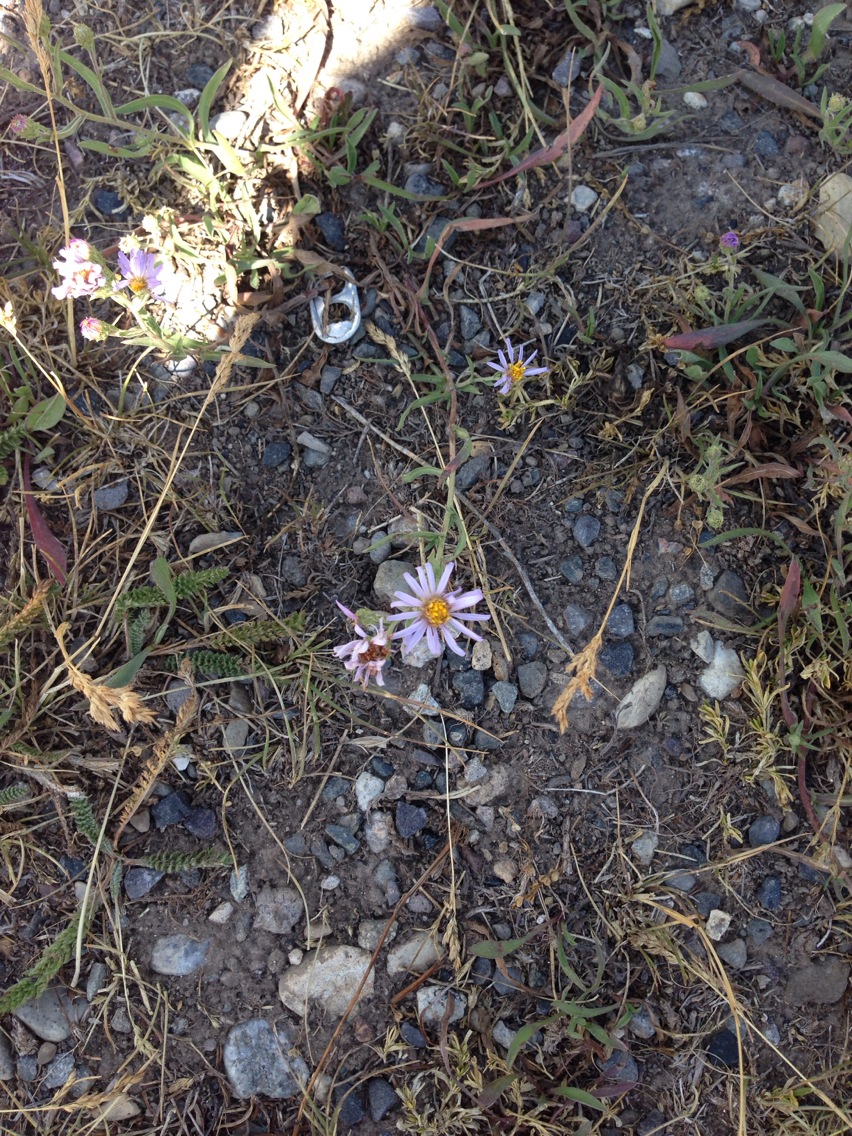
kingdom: Plantae
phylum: Tracheophyta
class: Magnoliopsida
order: Asterales
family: Asteraceae
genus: Eucephalus
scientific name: Eucephalus engelmannii
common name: Engelmann's aster
